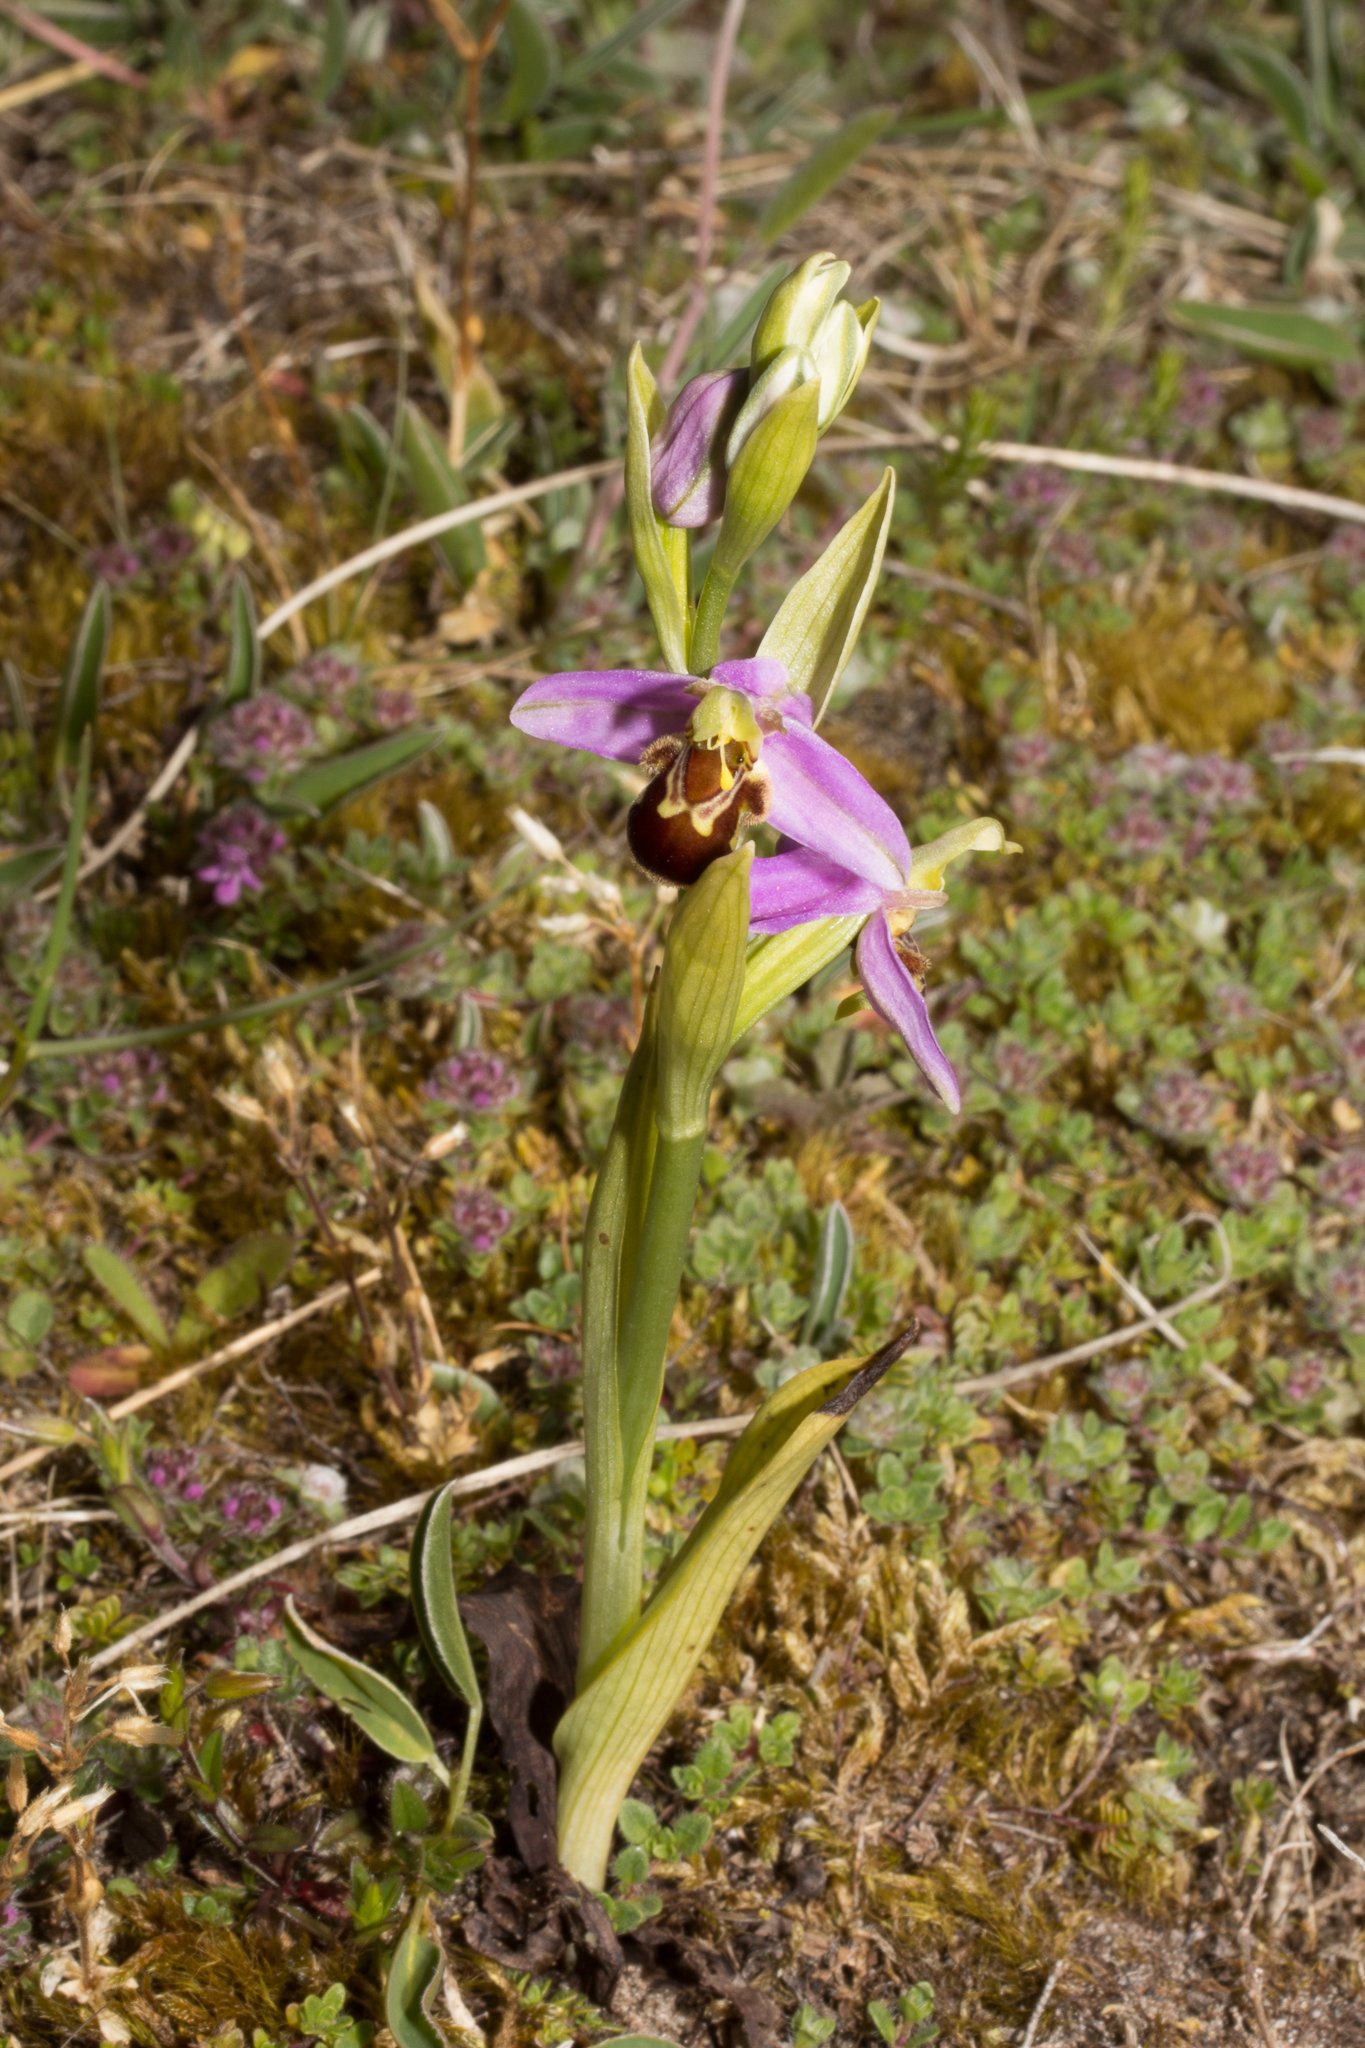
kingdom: Plantae
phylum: Tracheophyta
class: Liliopsida
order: Asparagales
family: Orchidaceae
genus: Ophrys
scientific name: Ophrys apifera
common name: Bee orchid
